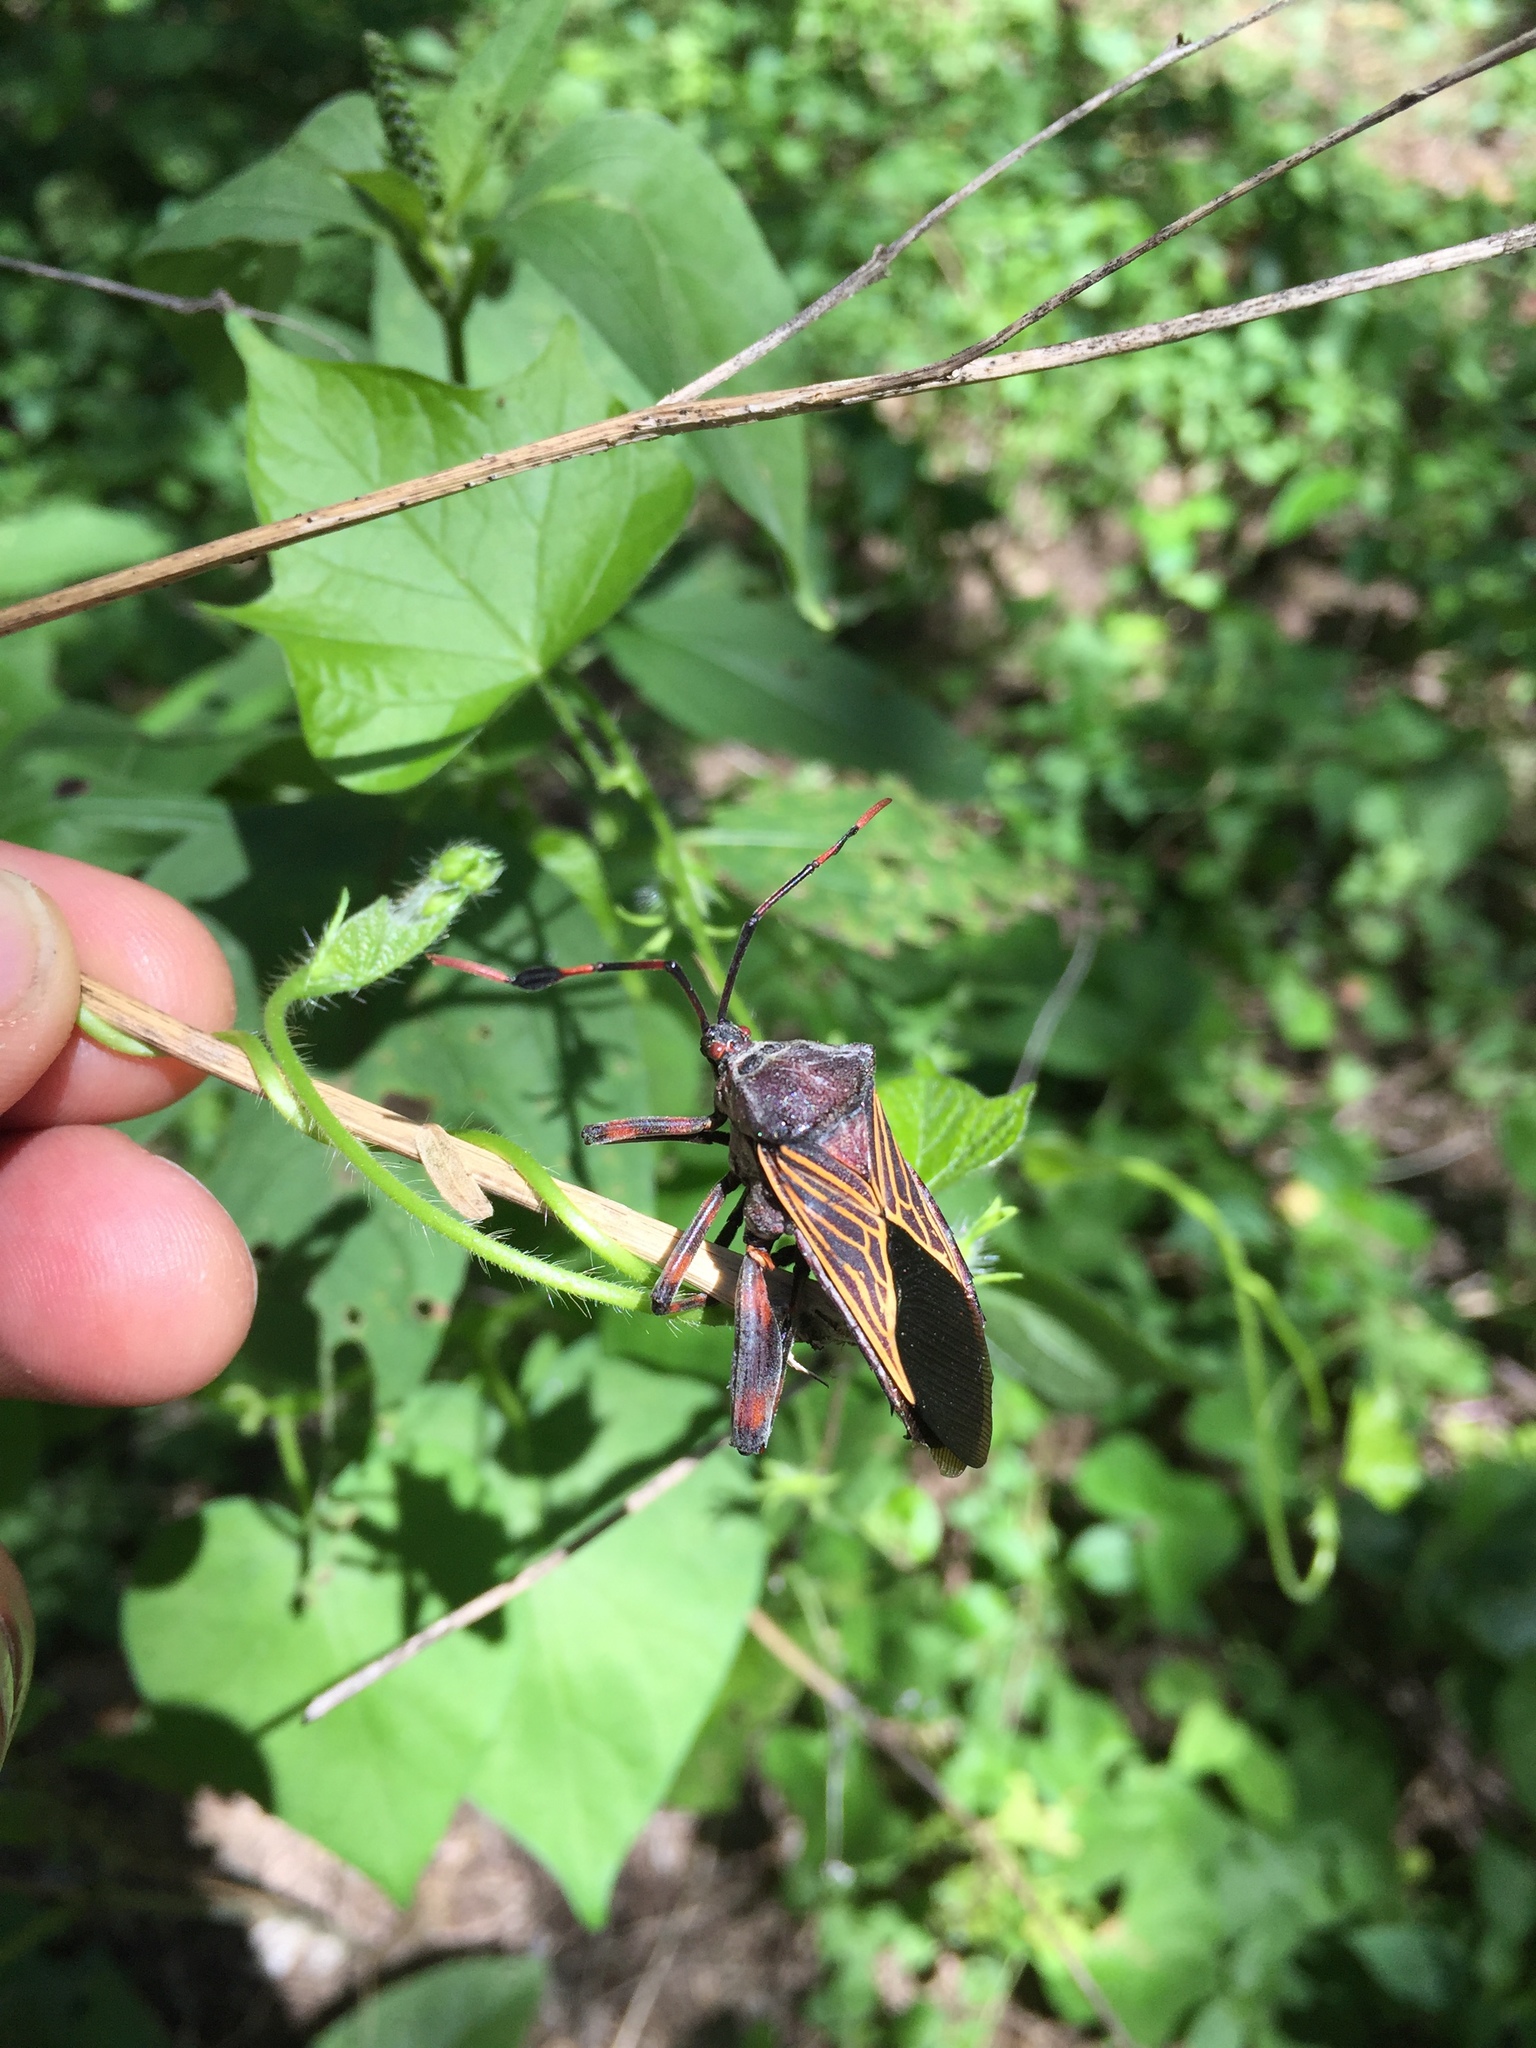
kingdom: Animalia
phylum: Arthropoda
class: Insecta
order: Hemiptera
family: Coreidae
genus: Thasus
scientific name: Thasus neocalifornicus
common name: Giant mesquite bug
